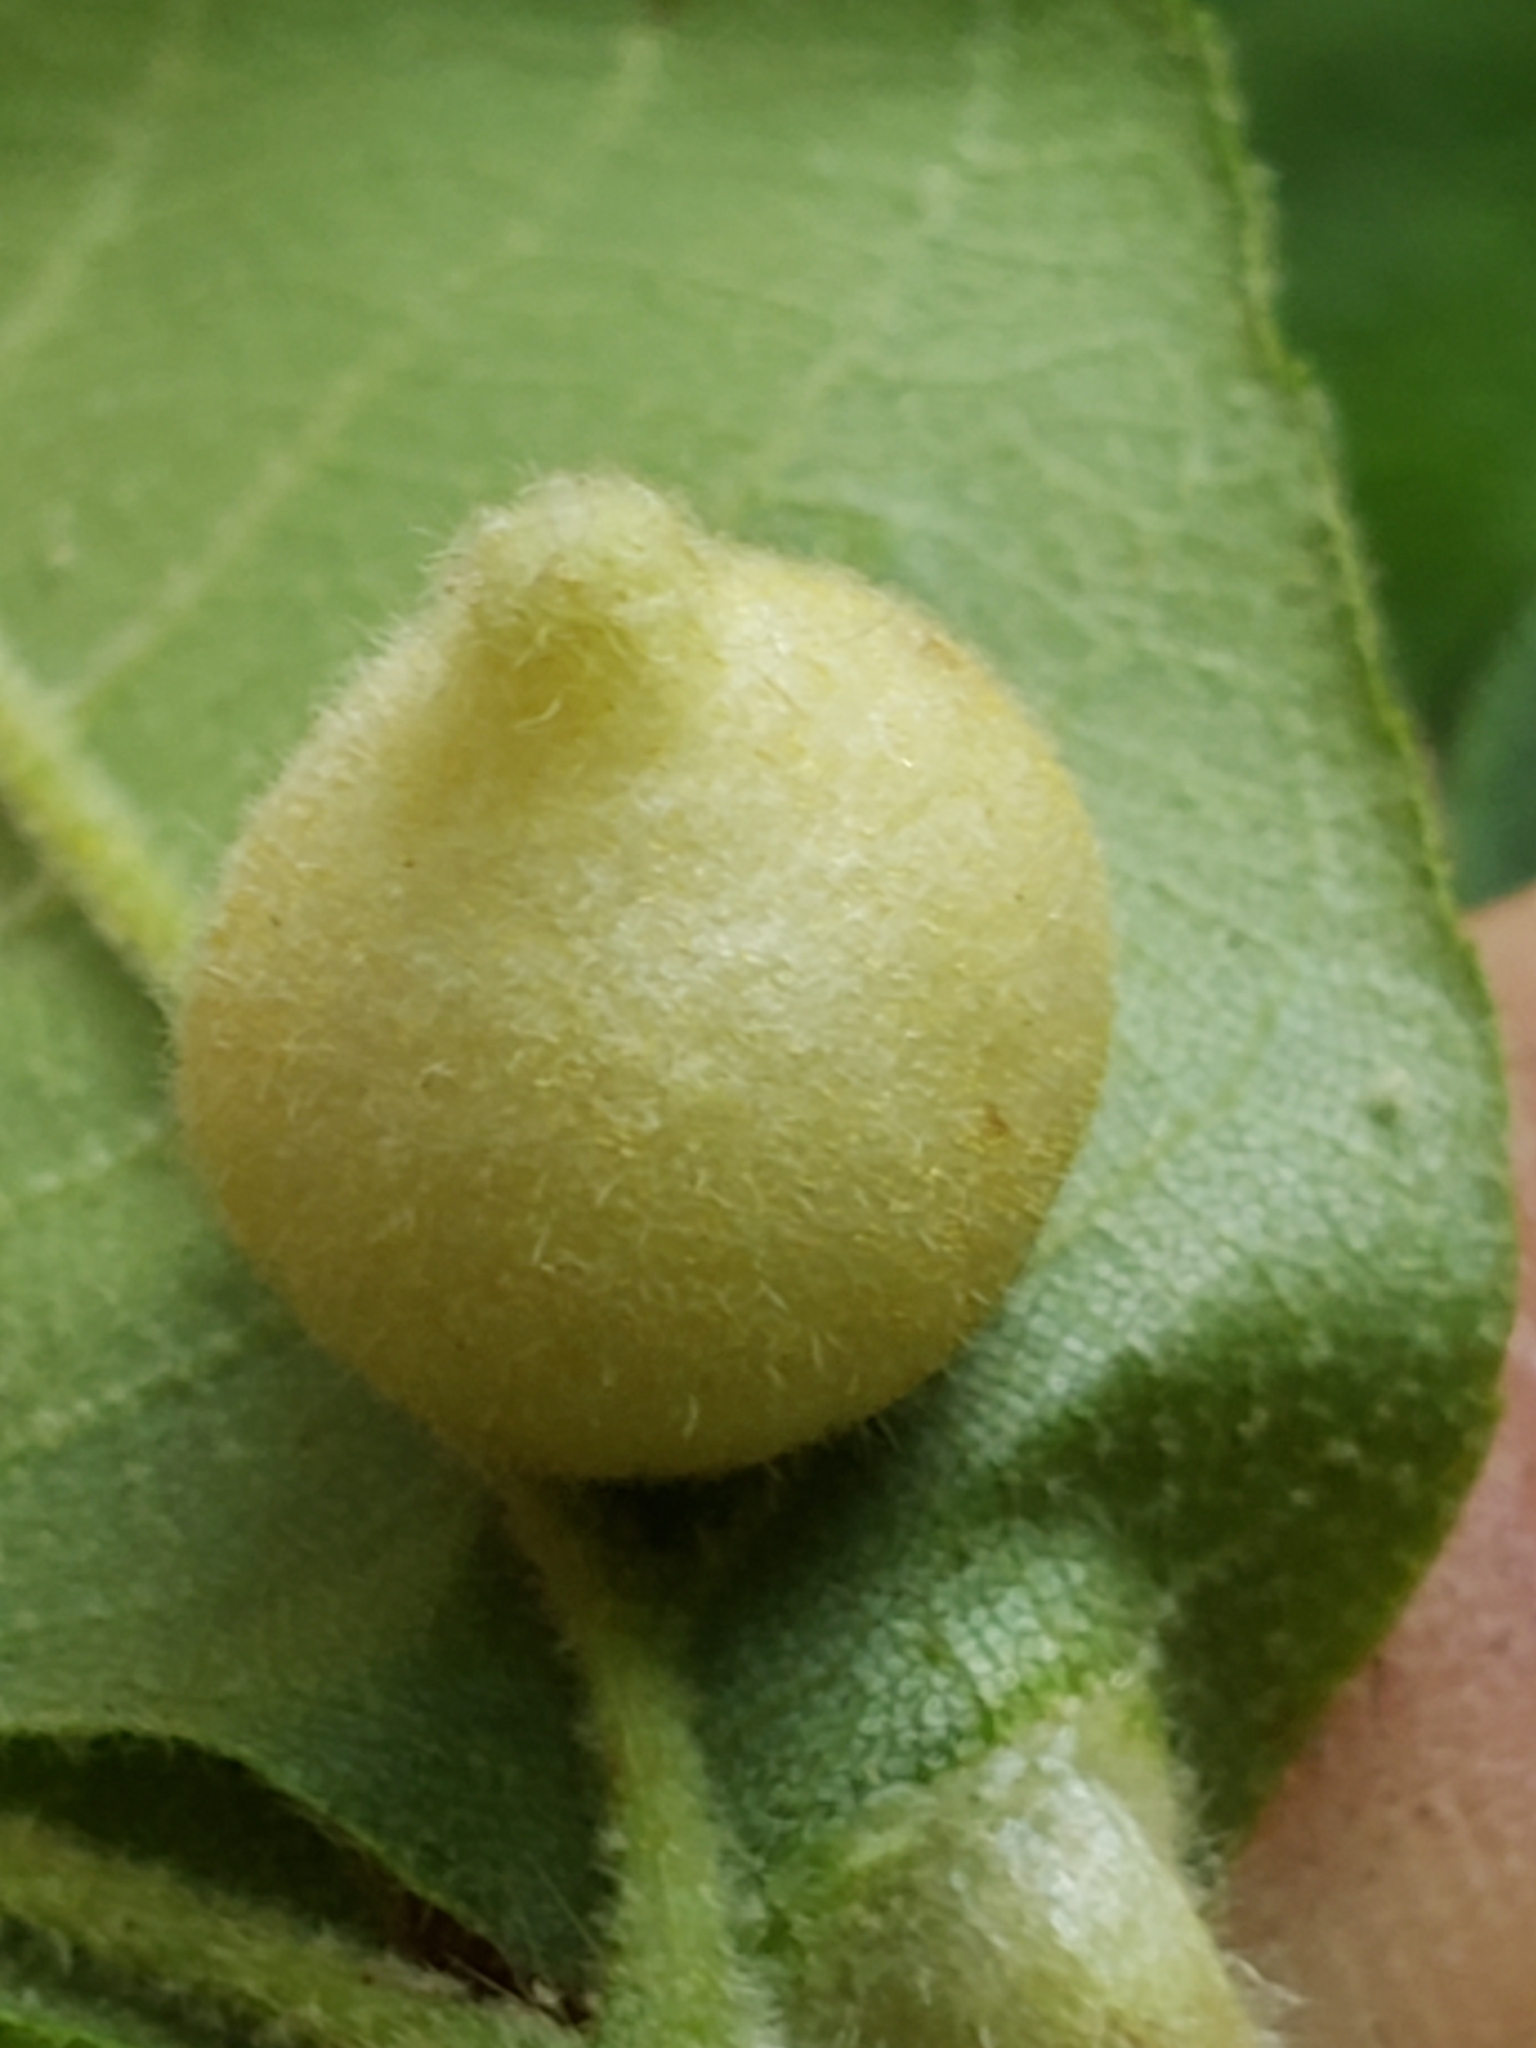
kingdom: Animalia
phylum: Arthropoda
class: Insecta
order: Hemiptera
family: Phylloxeridae
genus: Phylloxera
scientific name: Phylloxera caryae-avellana
